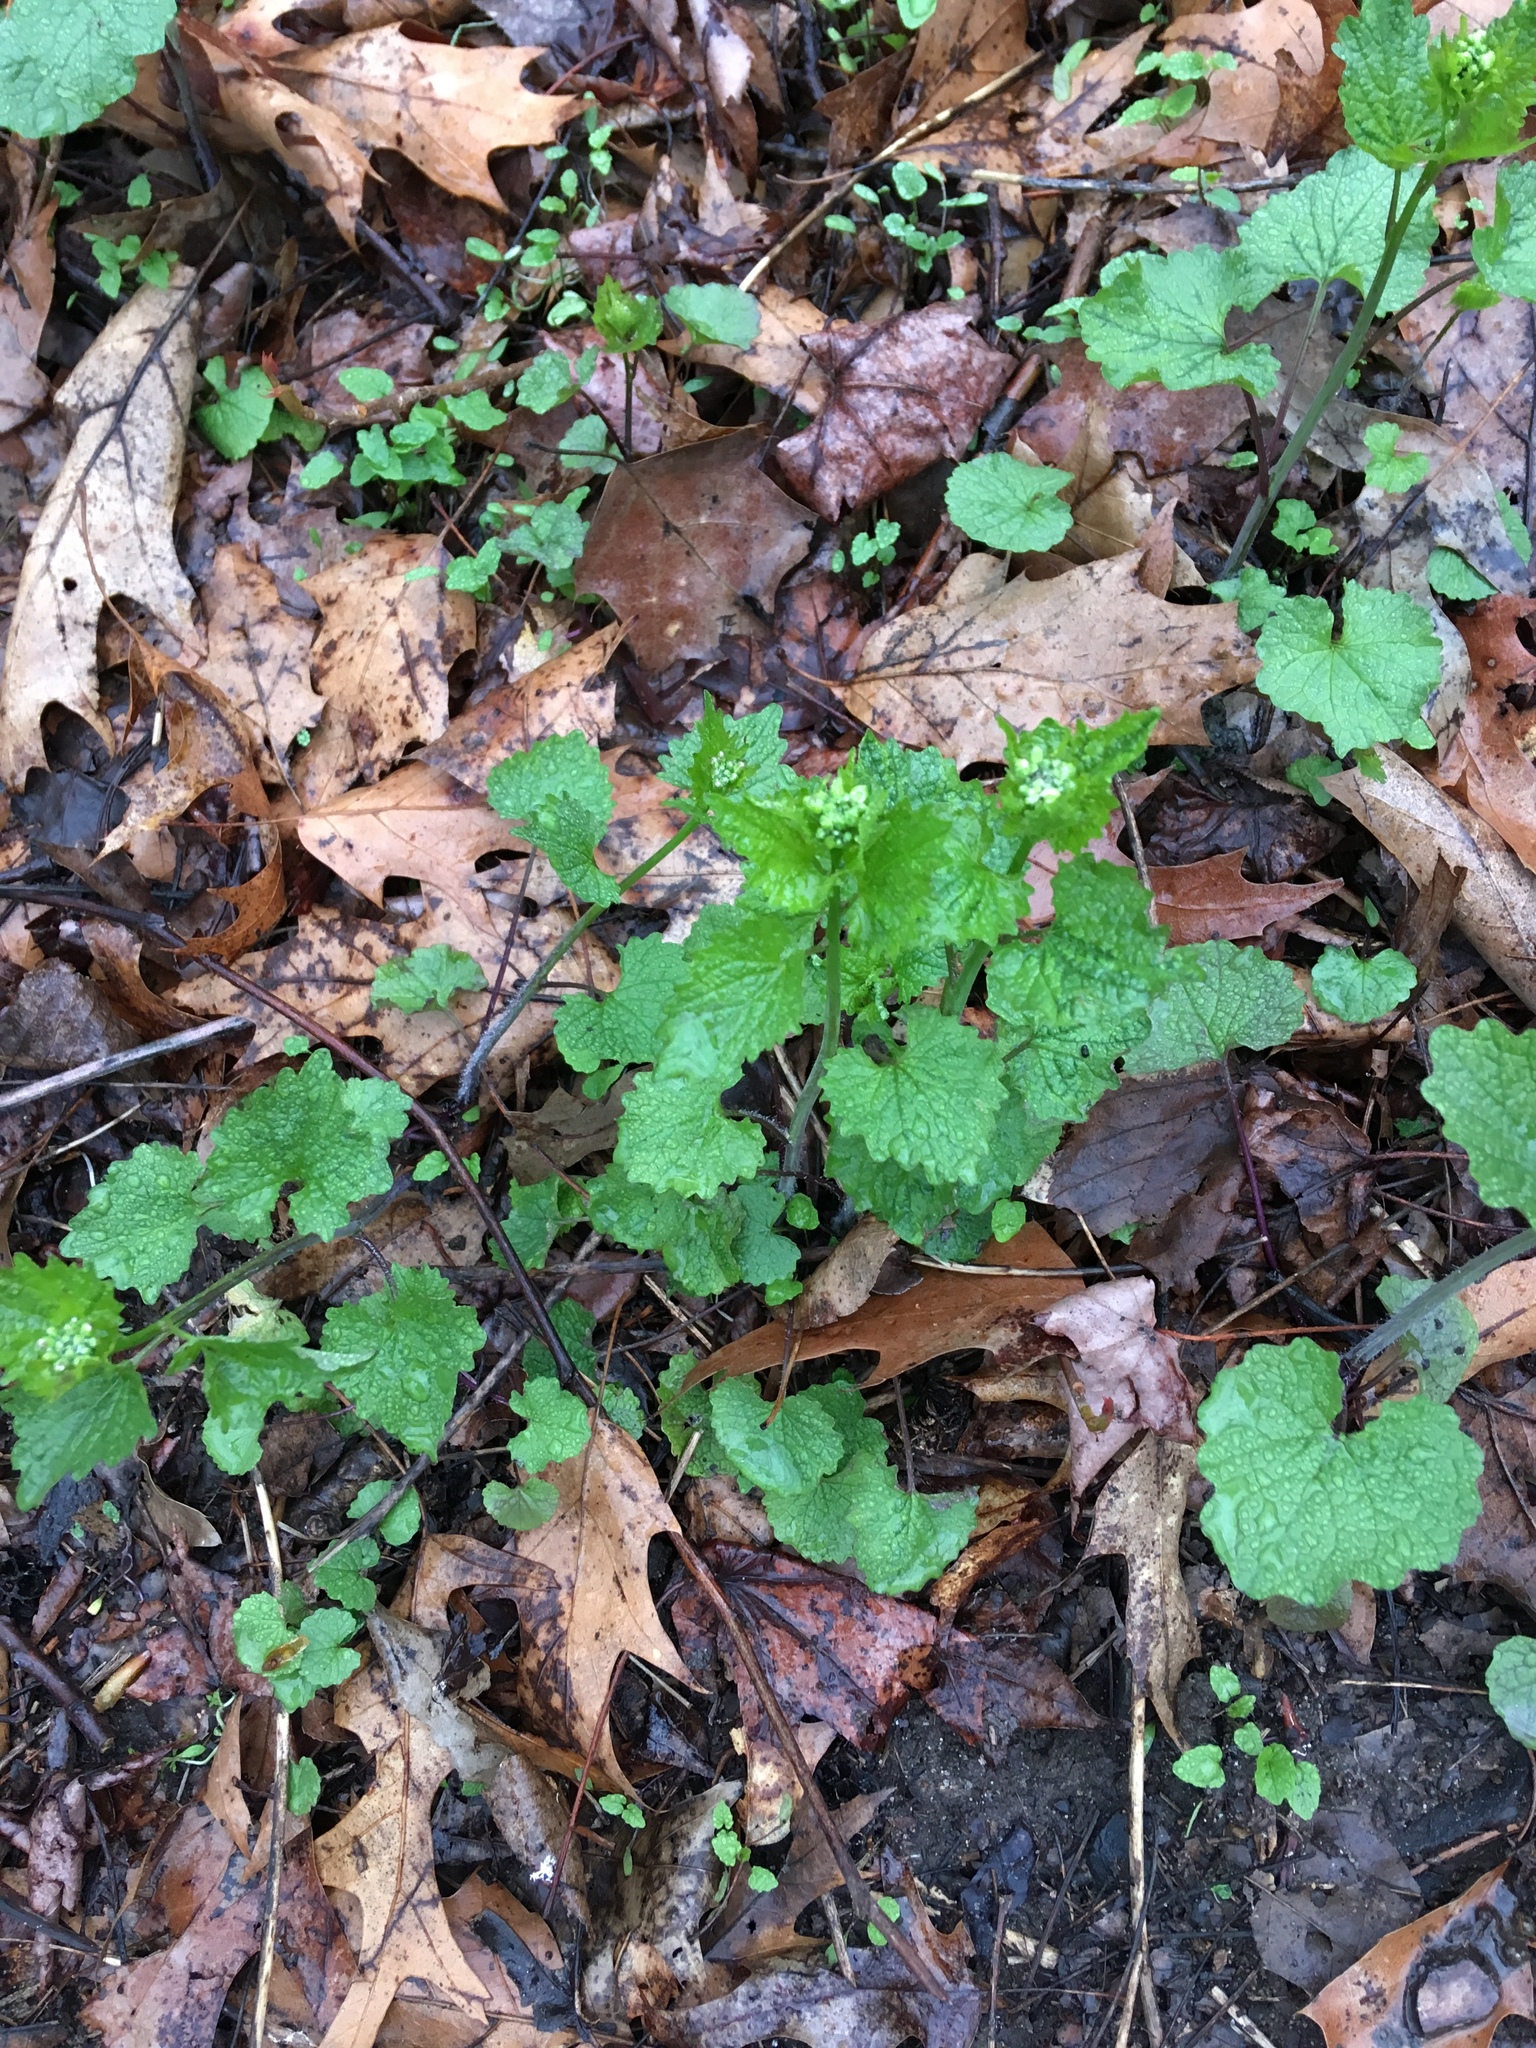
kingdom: Plantae
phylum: Tracheophyta
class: Magnoliopsida
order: Brassicales
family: Brassicaceae
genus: Alliaria
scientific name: Alliaria petiolata
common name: Garlic mustard
